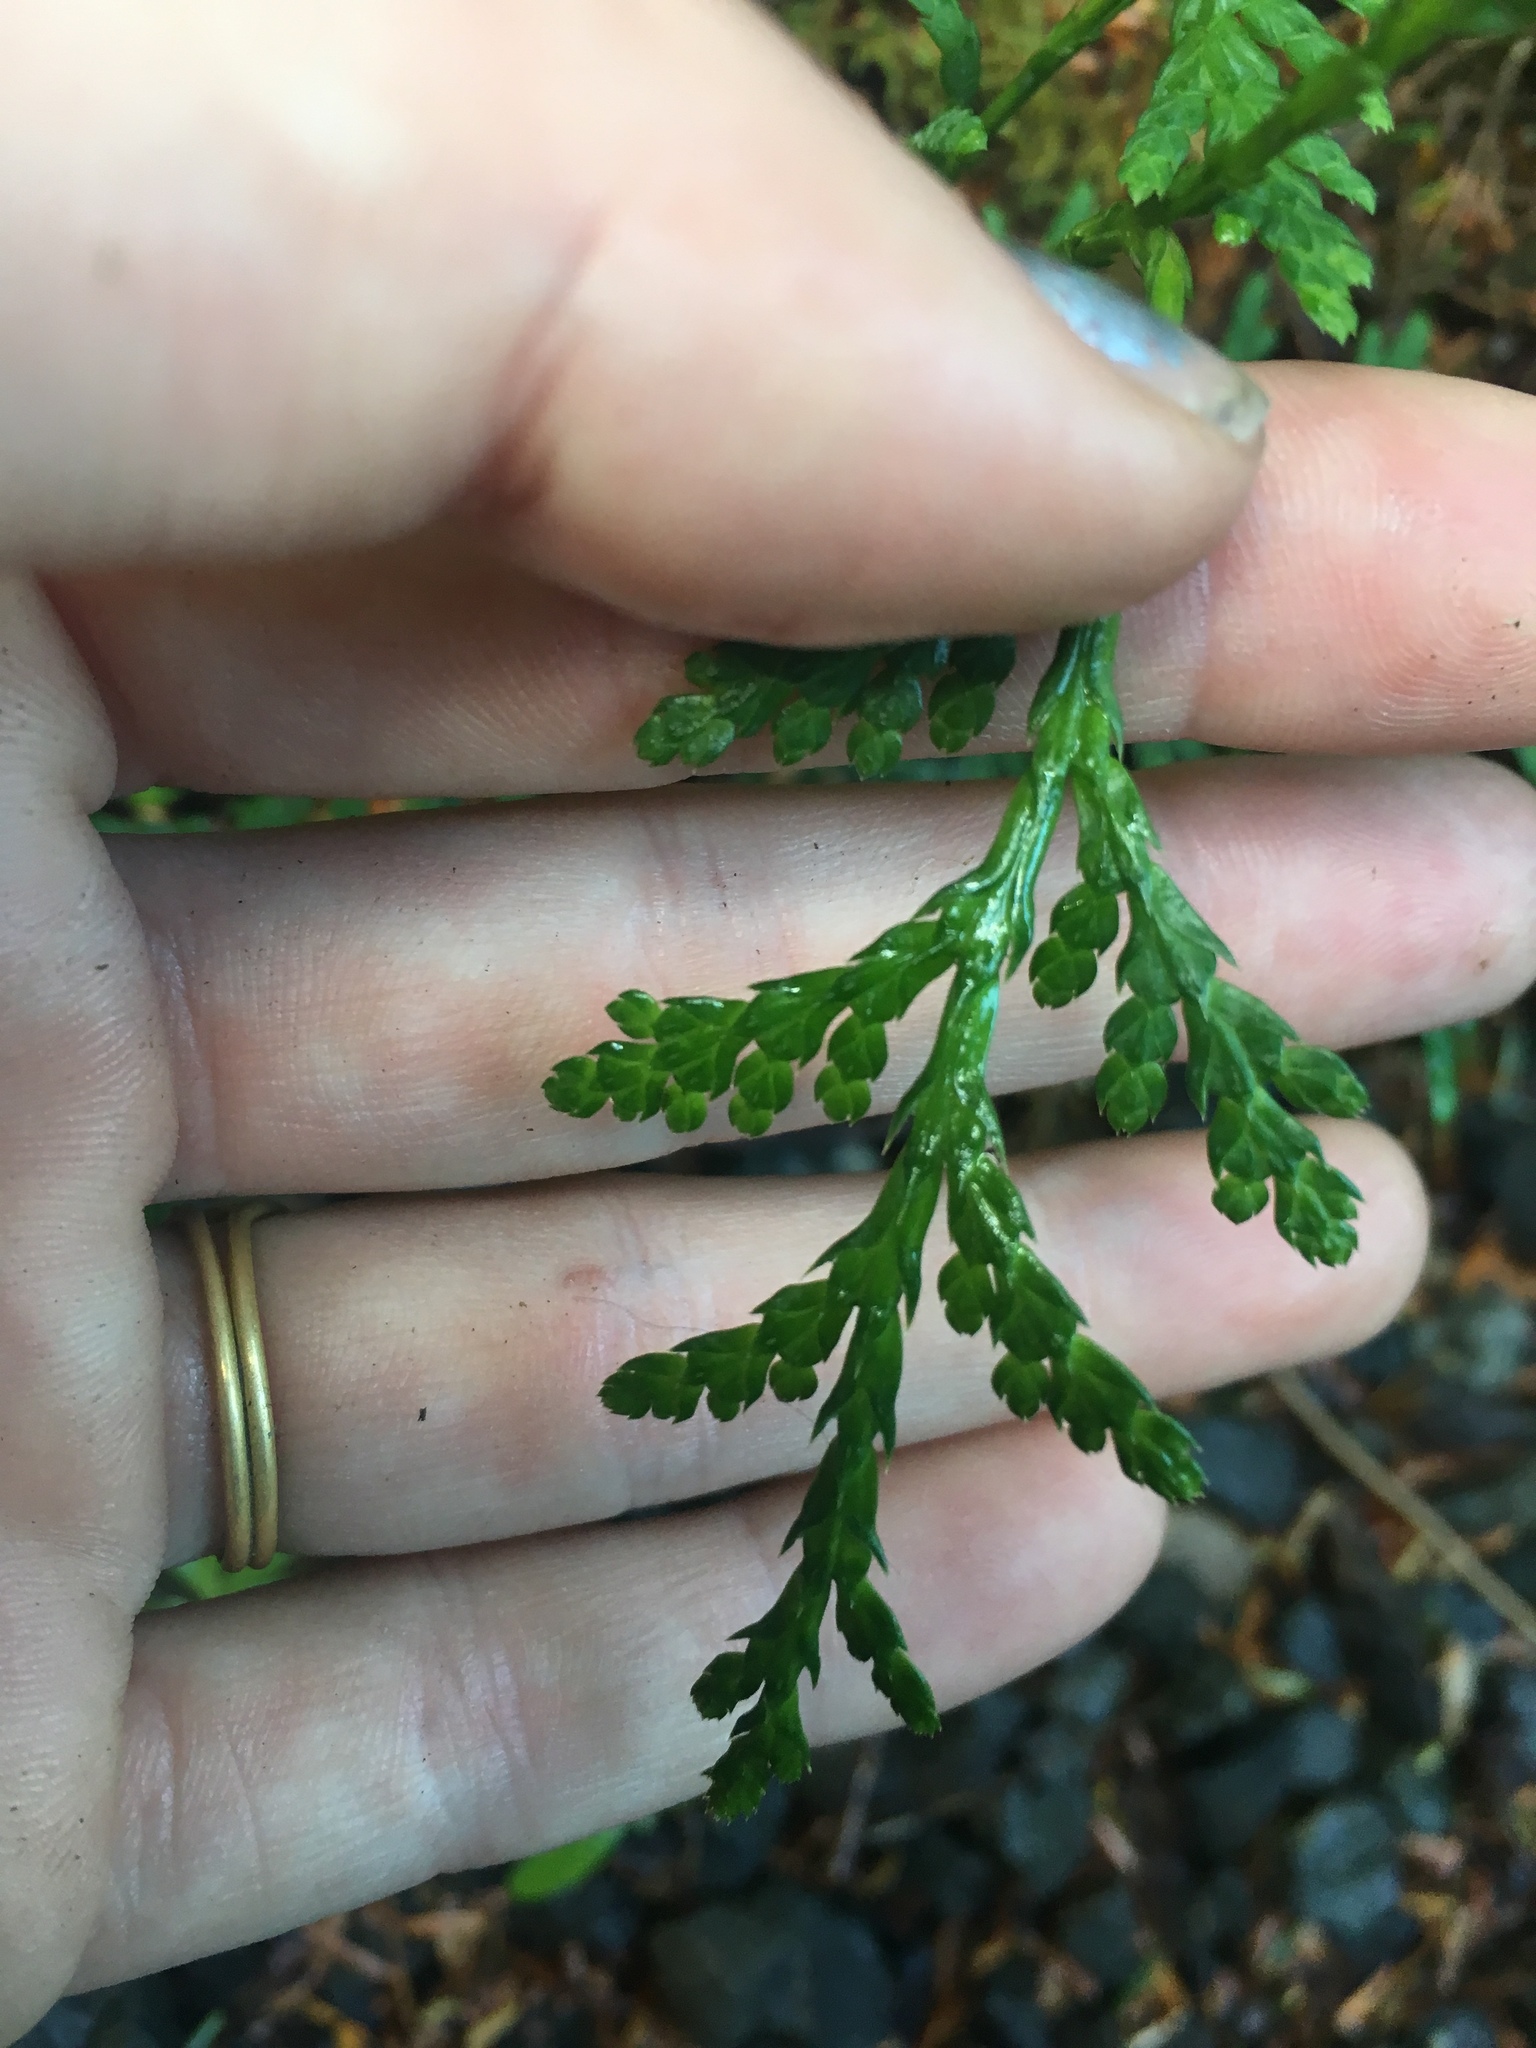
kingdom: Plantae
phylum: Tracheophyta
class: Pinopsida
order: Pinales
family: Cupressaceae
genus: Thuja
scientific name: Thuja plicata
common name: Western red-cedar
